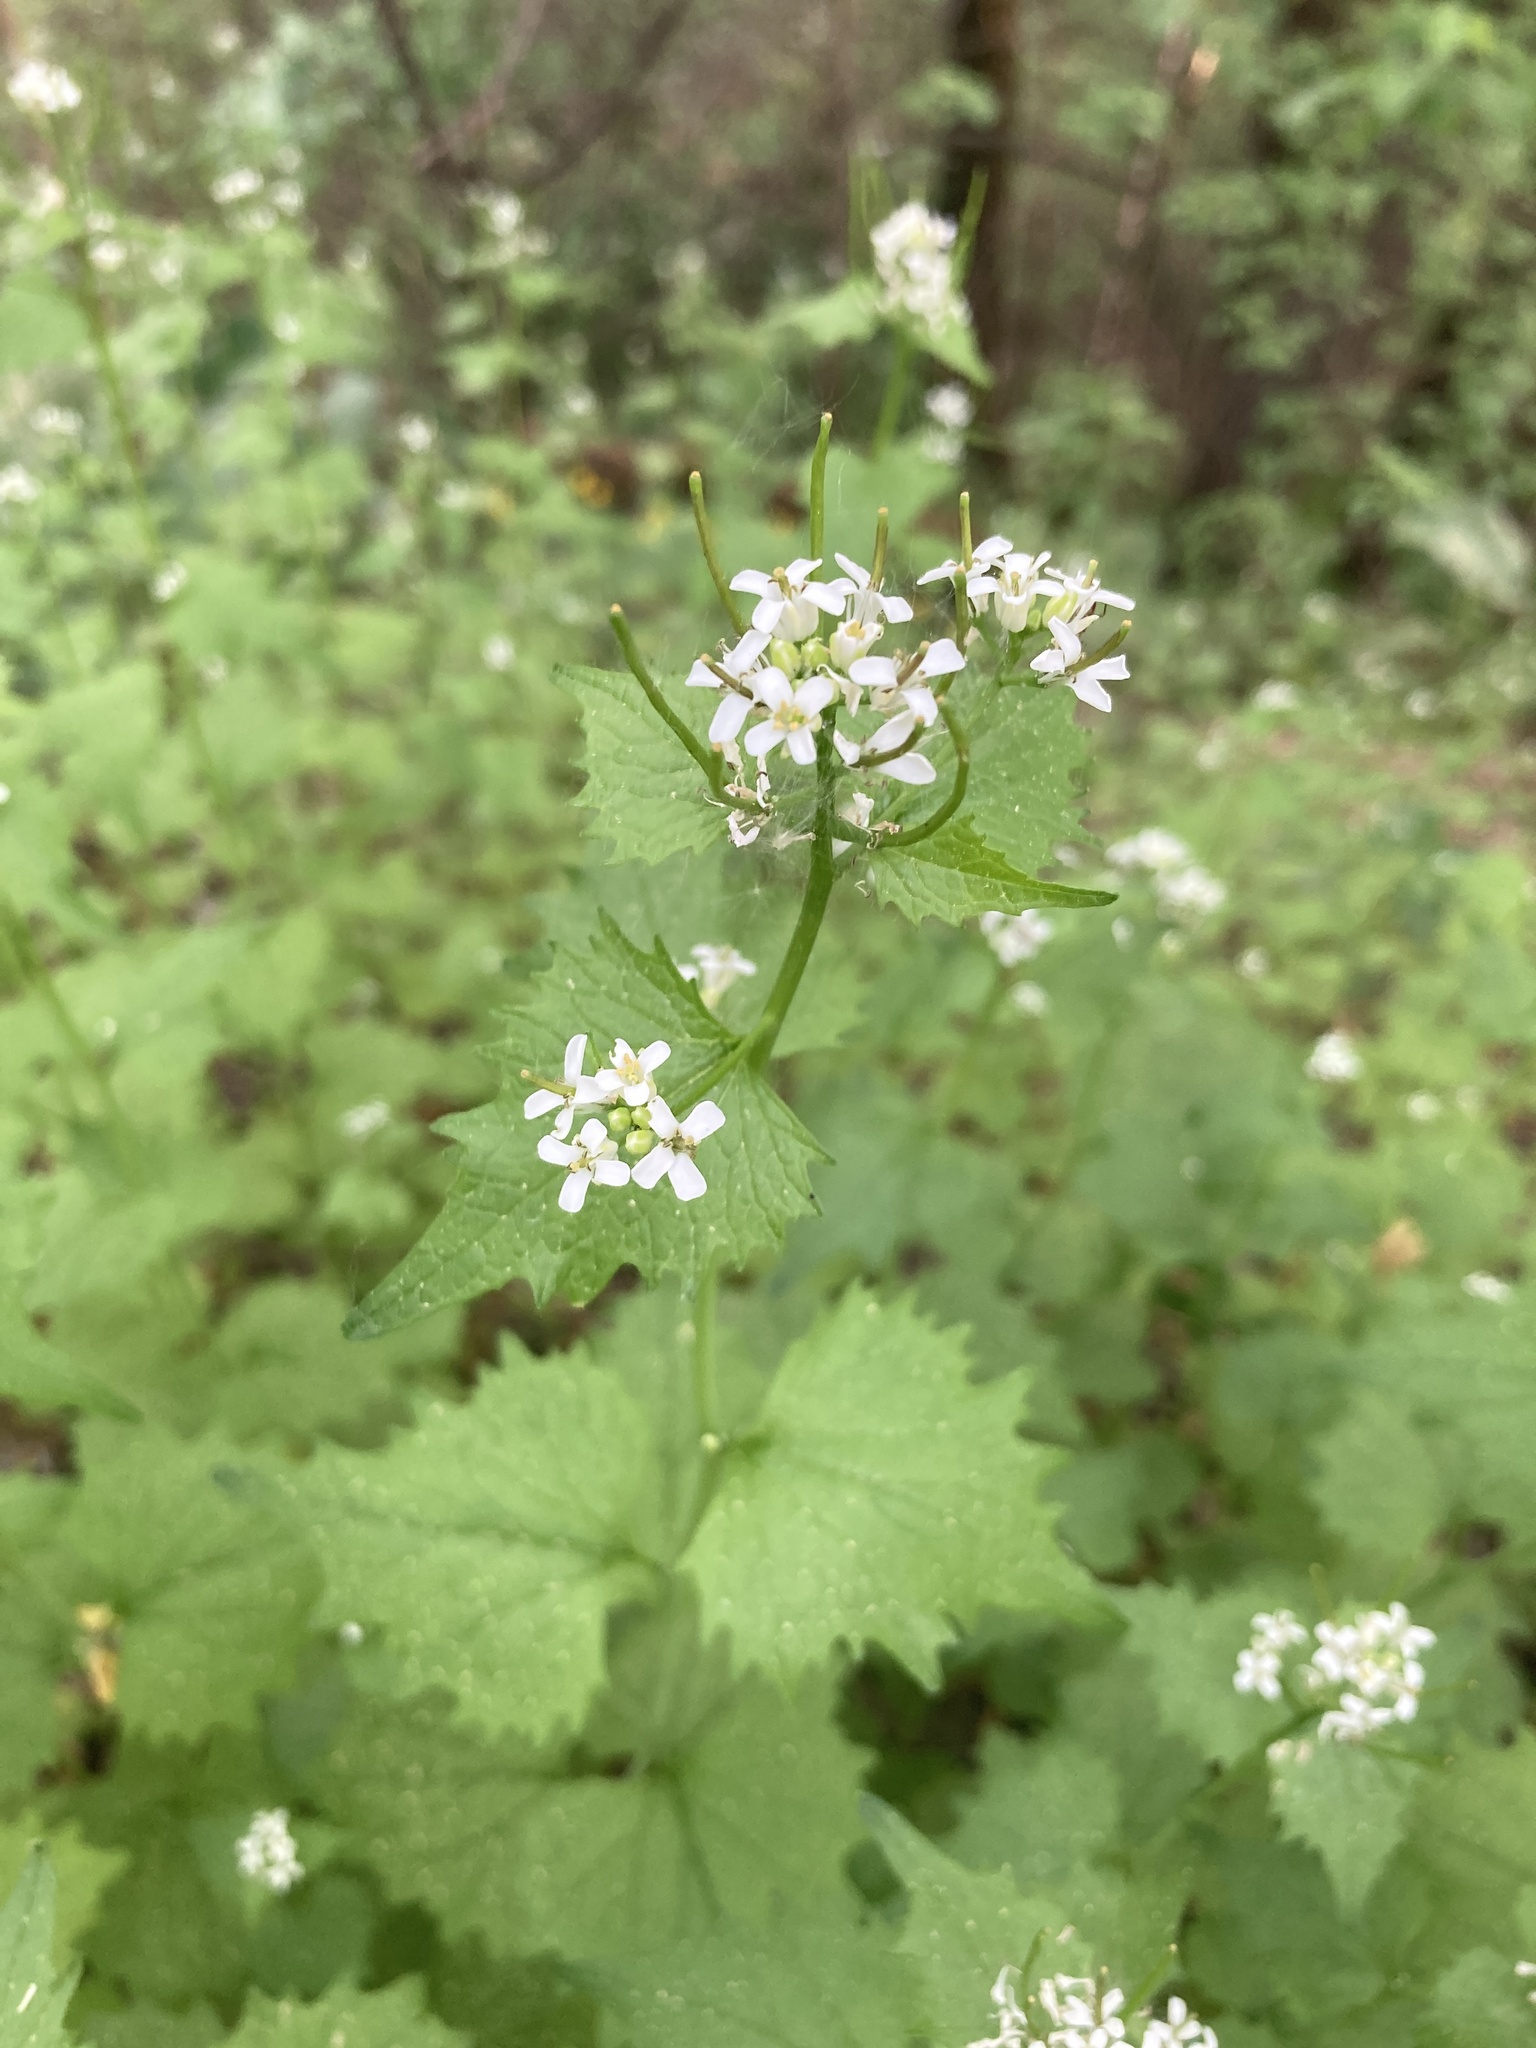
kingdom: Plantae
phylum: Tracheophyta
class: Magnoliopsida
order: Brassicales
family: Brassicaceae
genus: Alliaria
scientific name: Alliaria petiolata
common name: Garlic mustard
